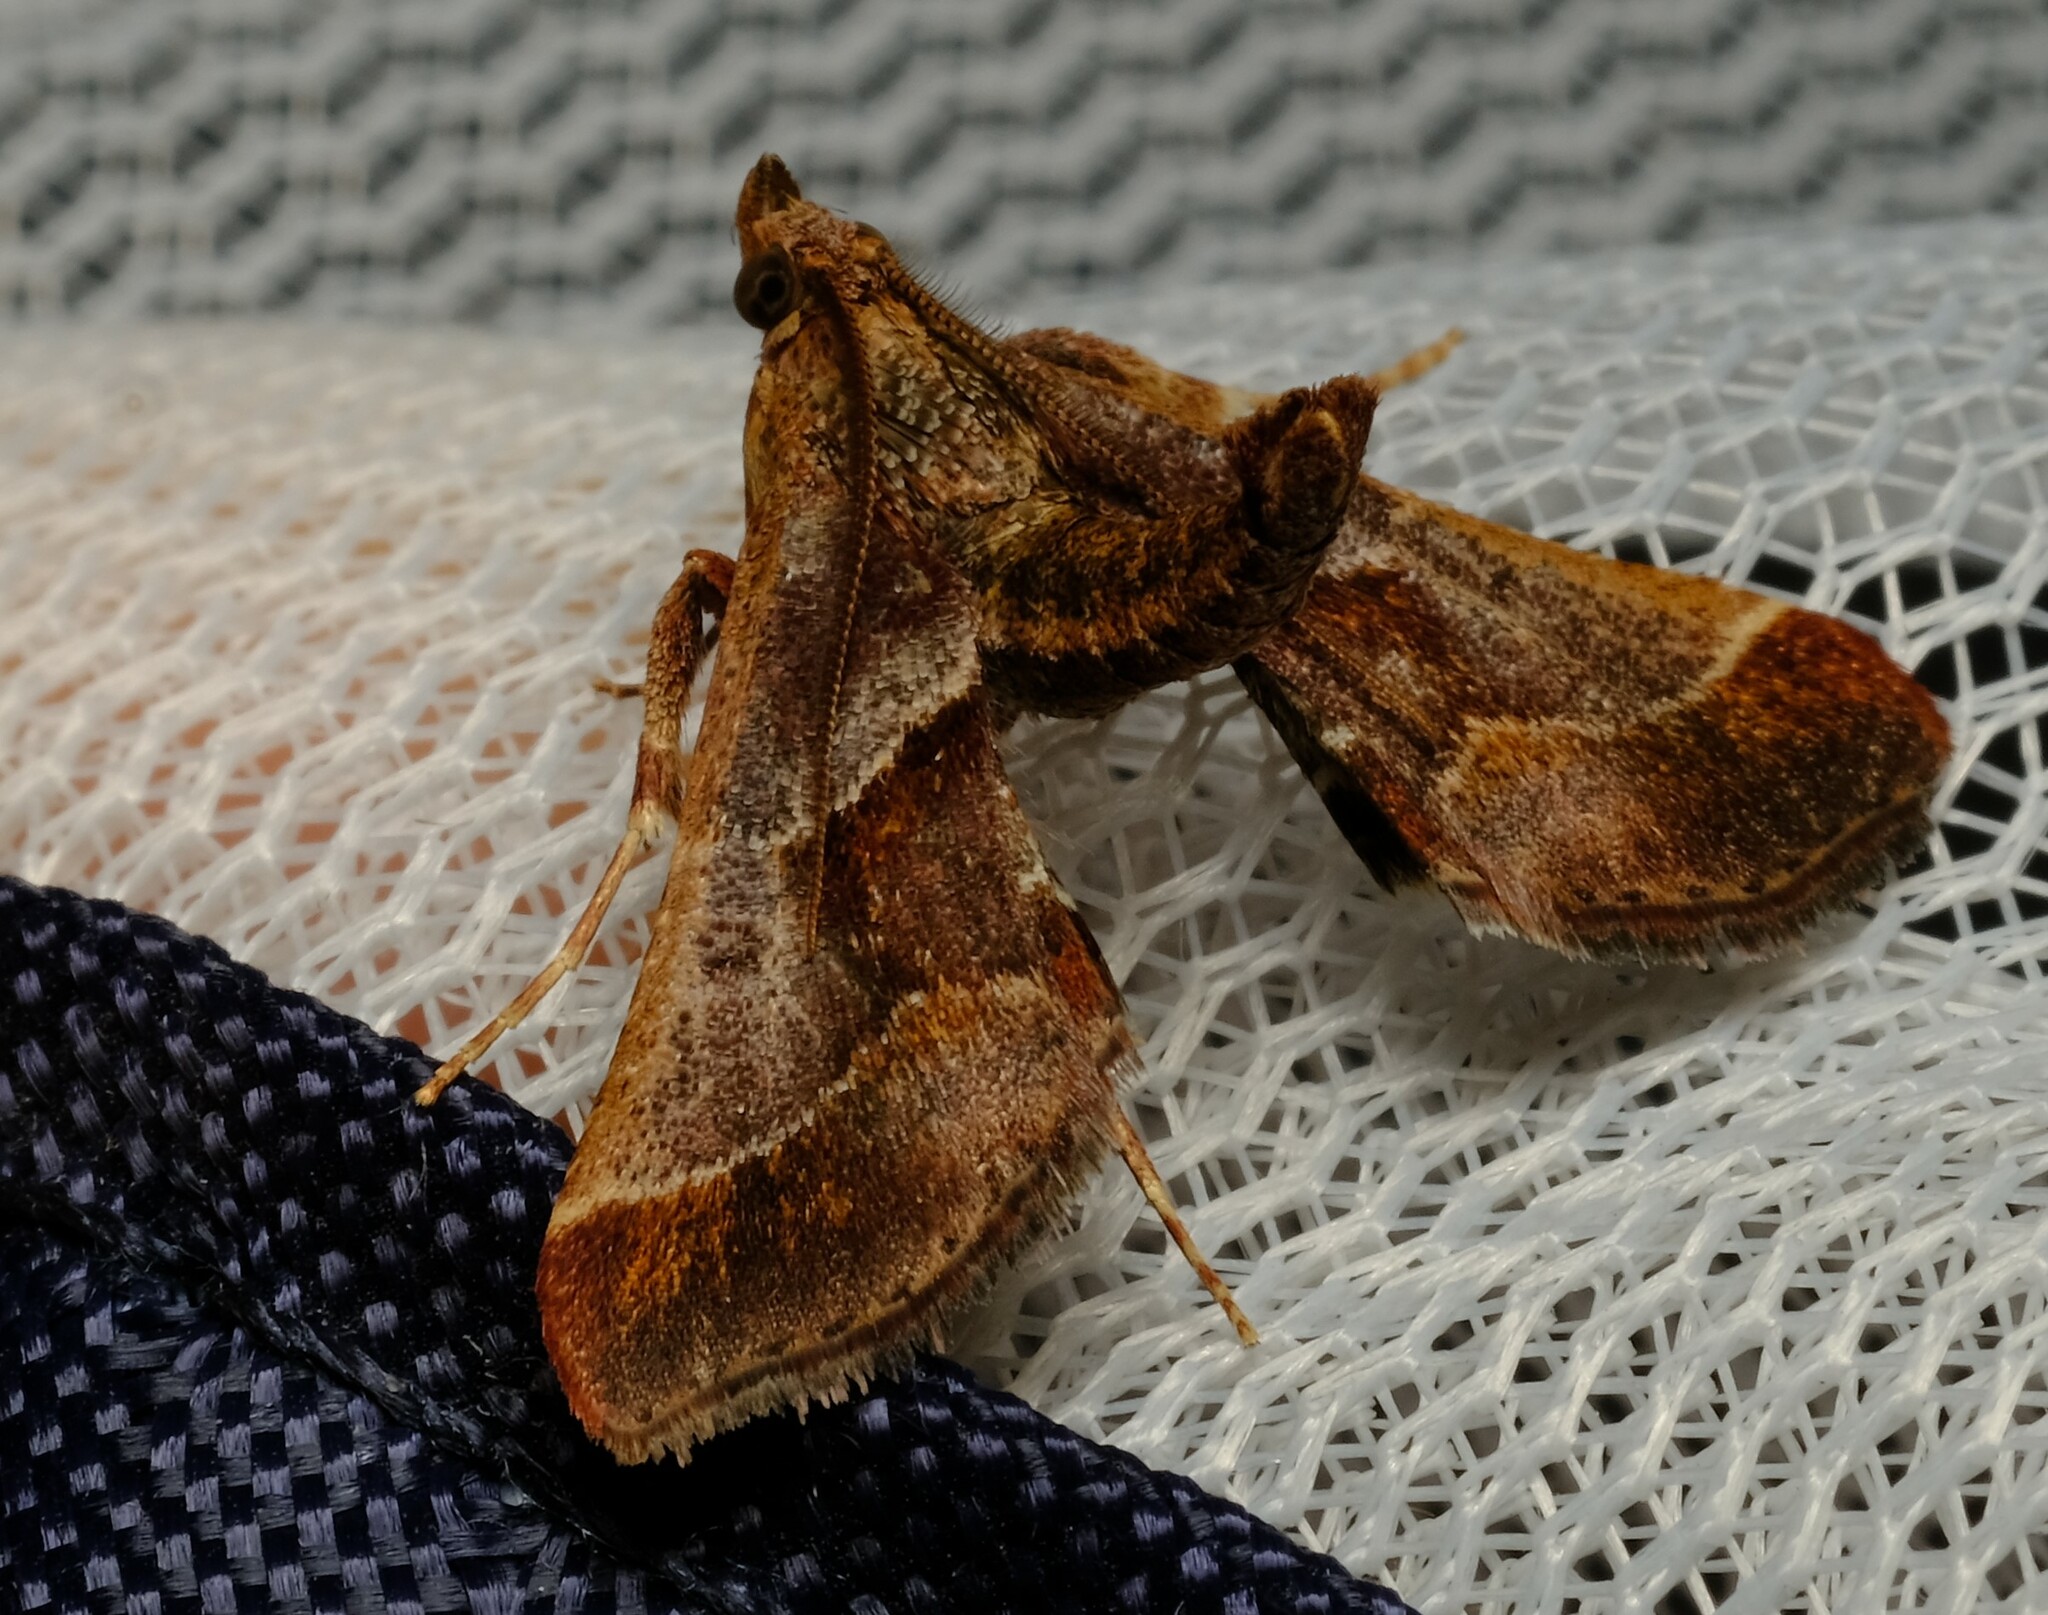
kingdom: Animalia
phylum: Arthropoda
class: Insecta
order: Lepidoptera
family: Pyralidae
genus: Gauna
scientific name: Gauna aegusalis
